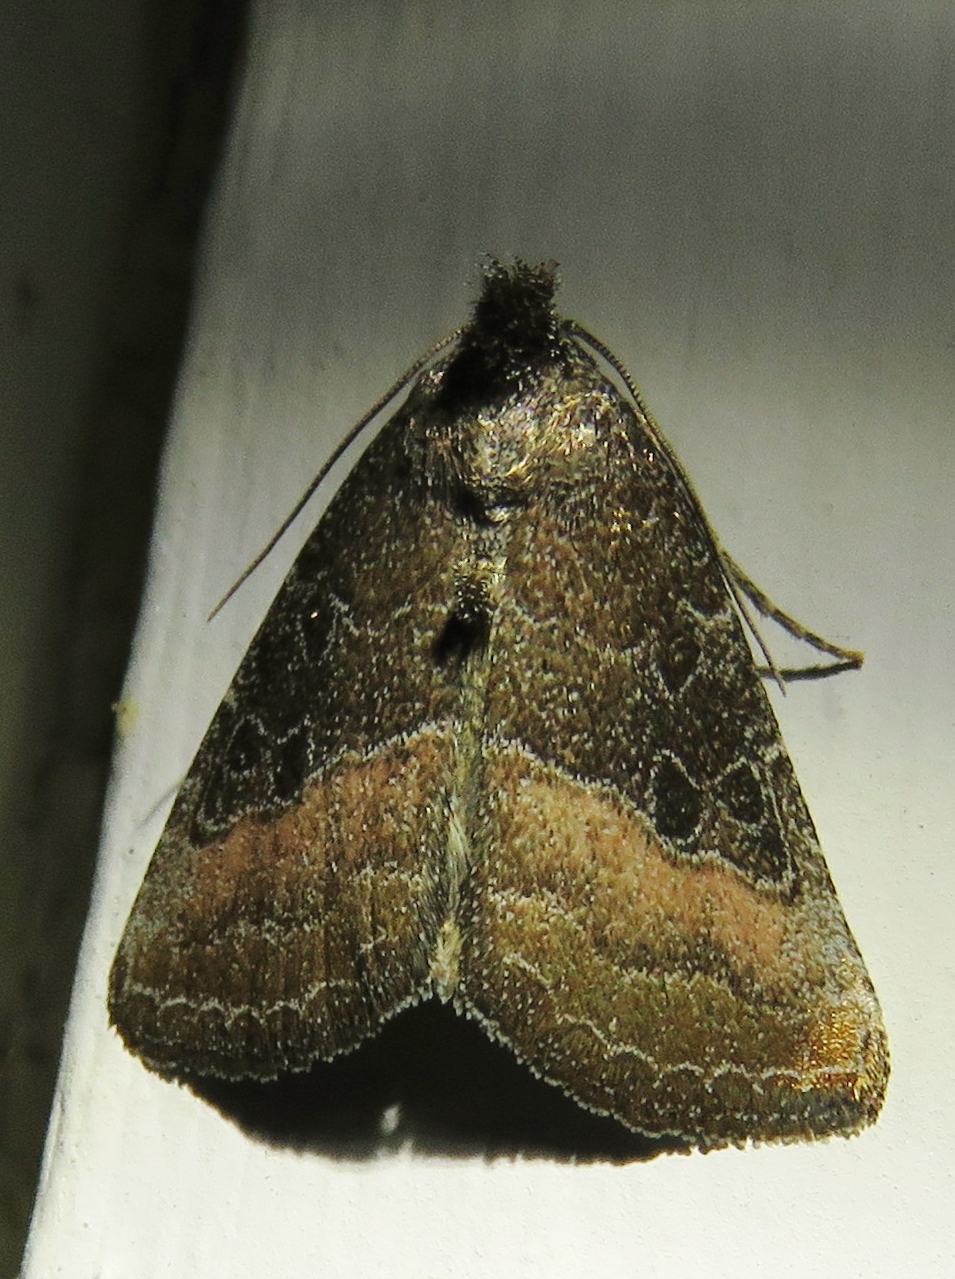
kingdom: Animalia
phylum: Arthropoda
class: Insecta
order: Lepidoptera
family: Noctuidae
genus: Ogdoconta
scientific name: Ogdoconta cinereola
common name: Common pinkband
